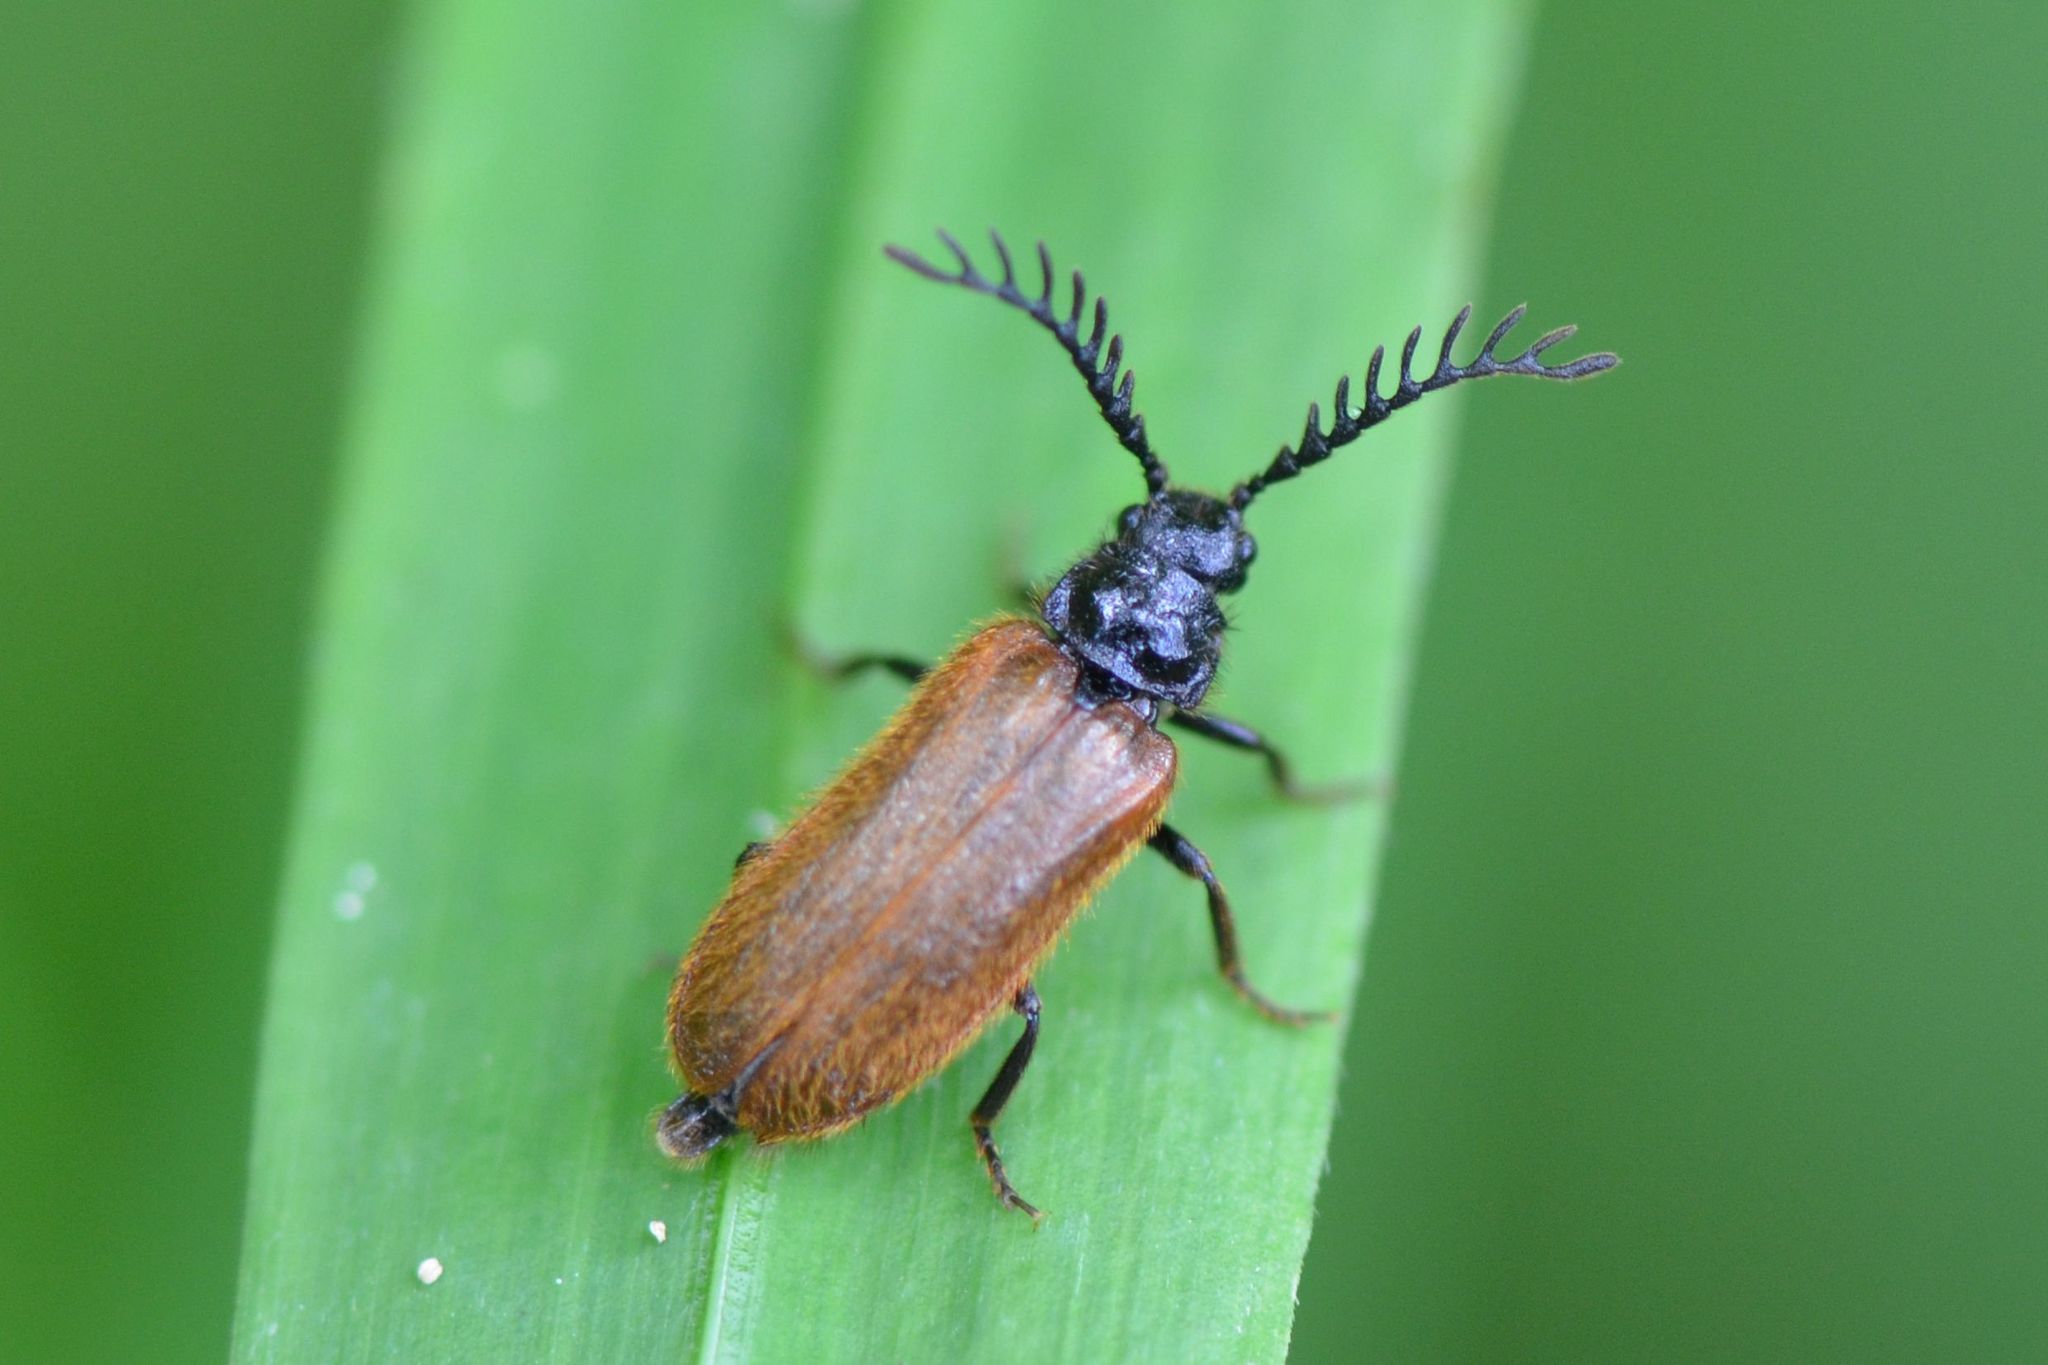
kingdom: Animalia
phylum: Arthropoda
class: Insecta
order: Coleoptera
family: Drilidae
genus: Drilus
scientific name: Drilus flavescens
